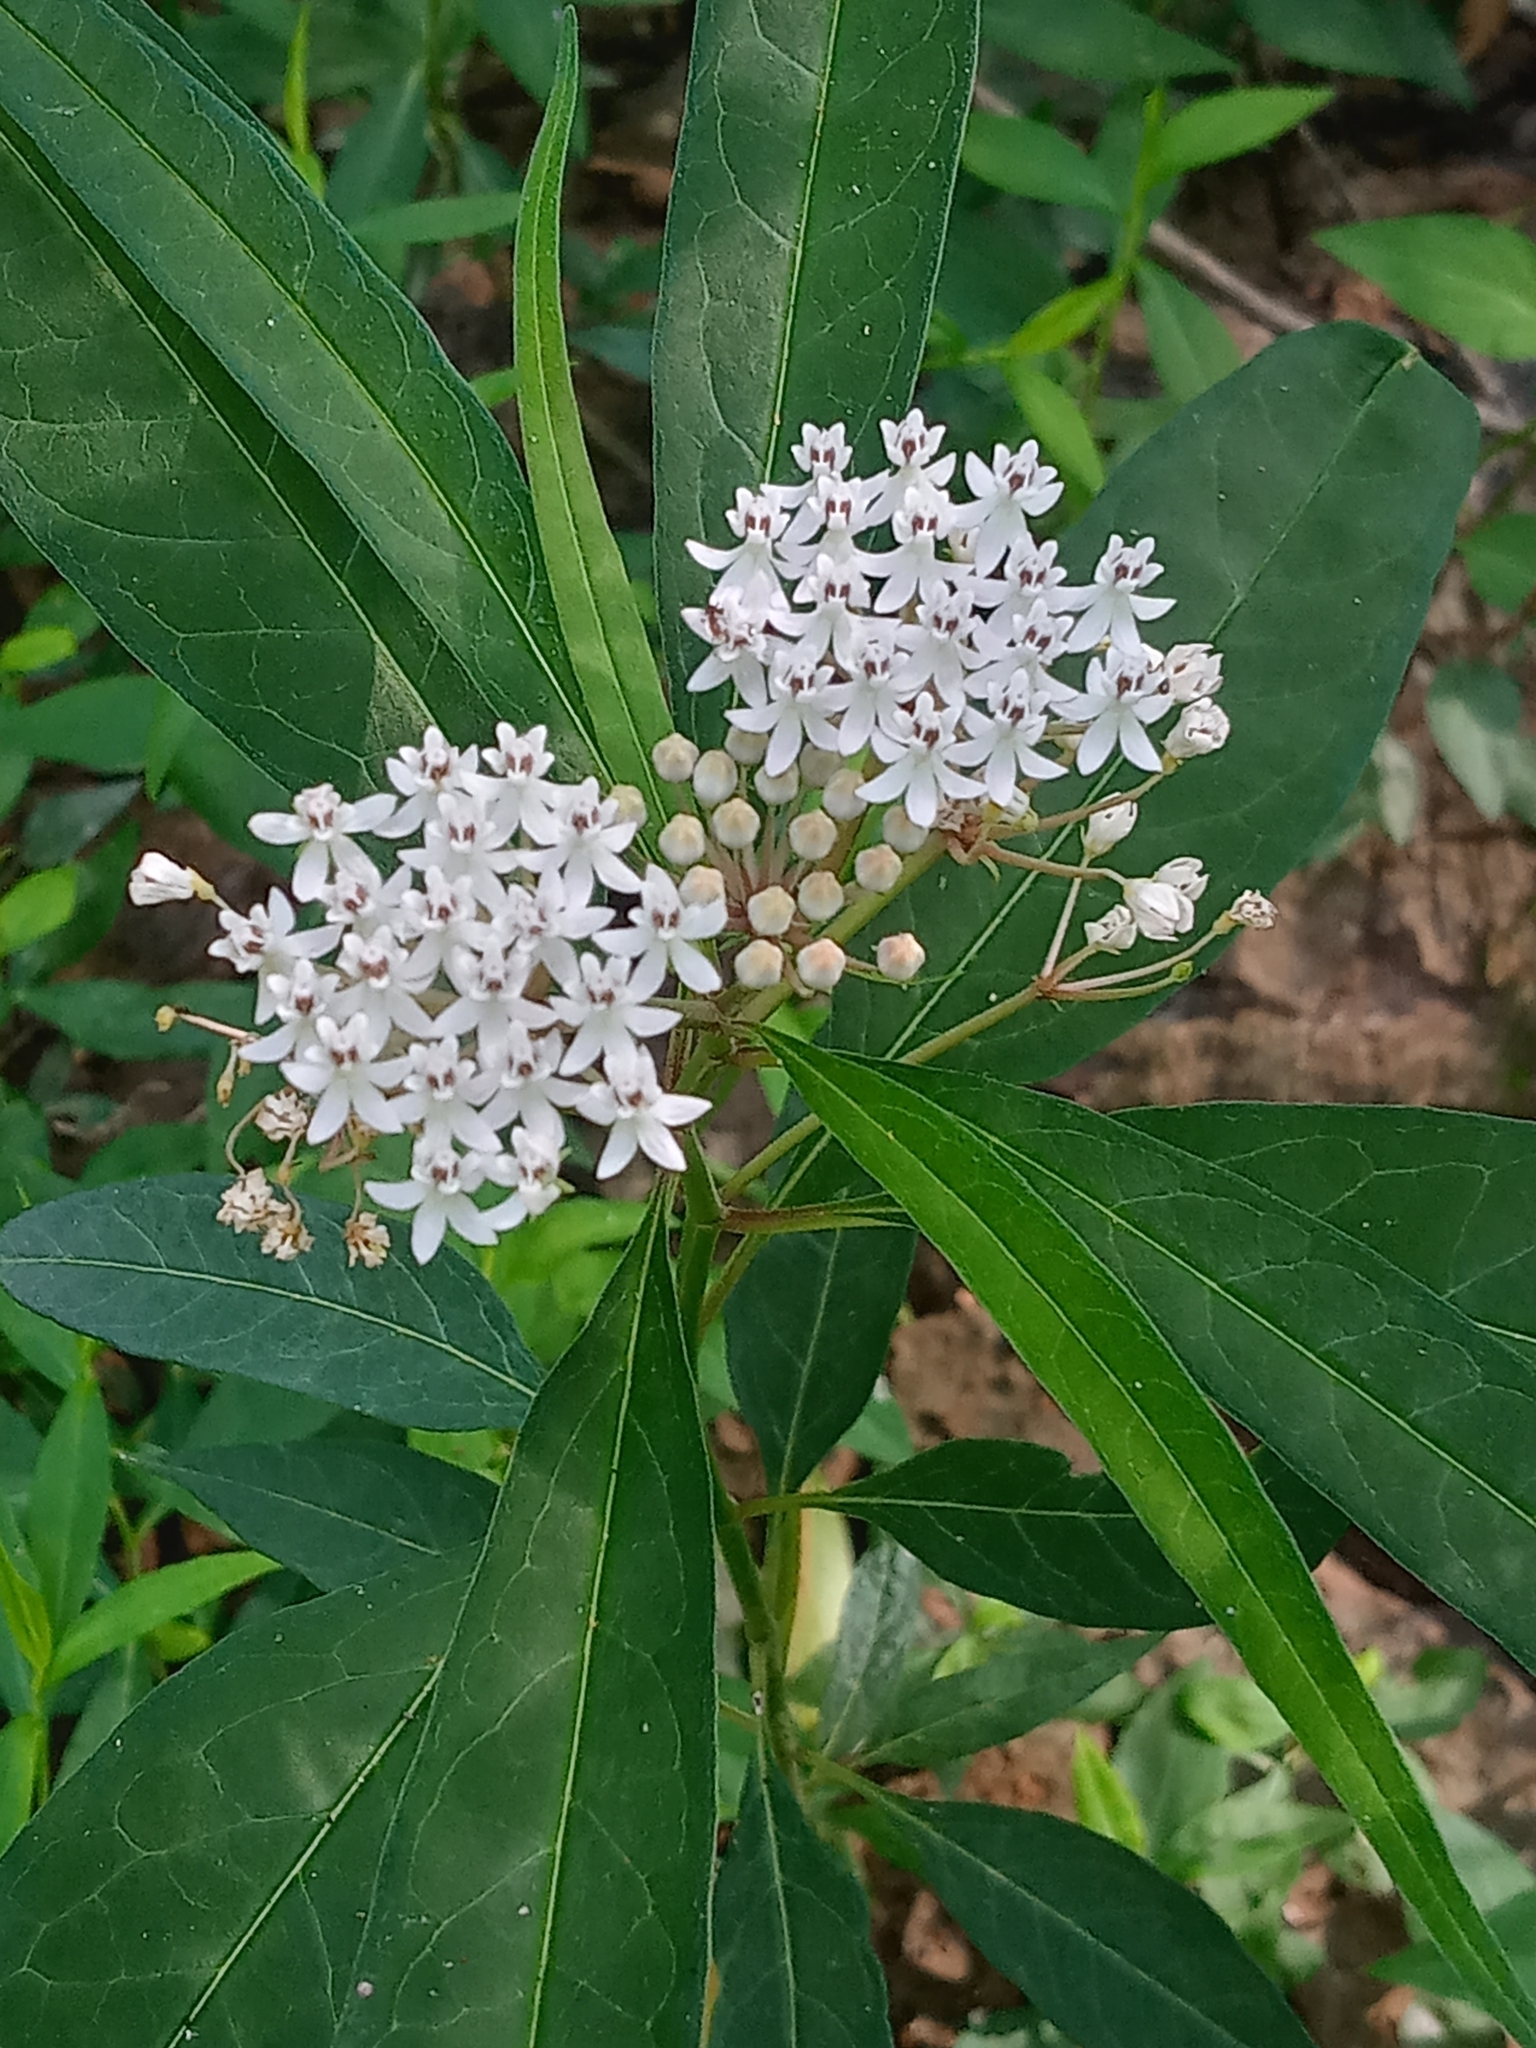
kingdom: Plantae
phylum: Tracheophyta
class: Magnoliopsida
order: Gentianales
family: Apocynaceae
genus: Asclepias
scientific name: Asclepias perennis
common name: Smooth-seed milkweed
